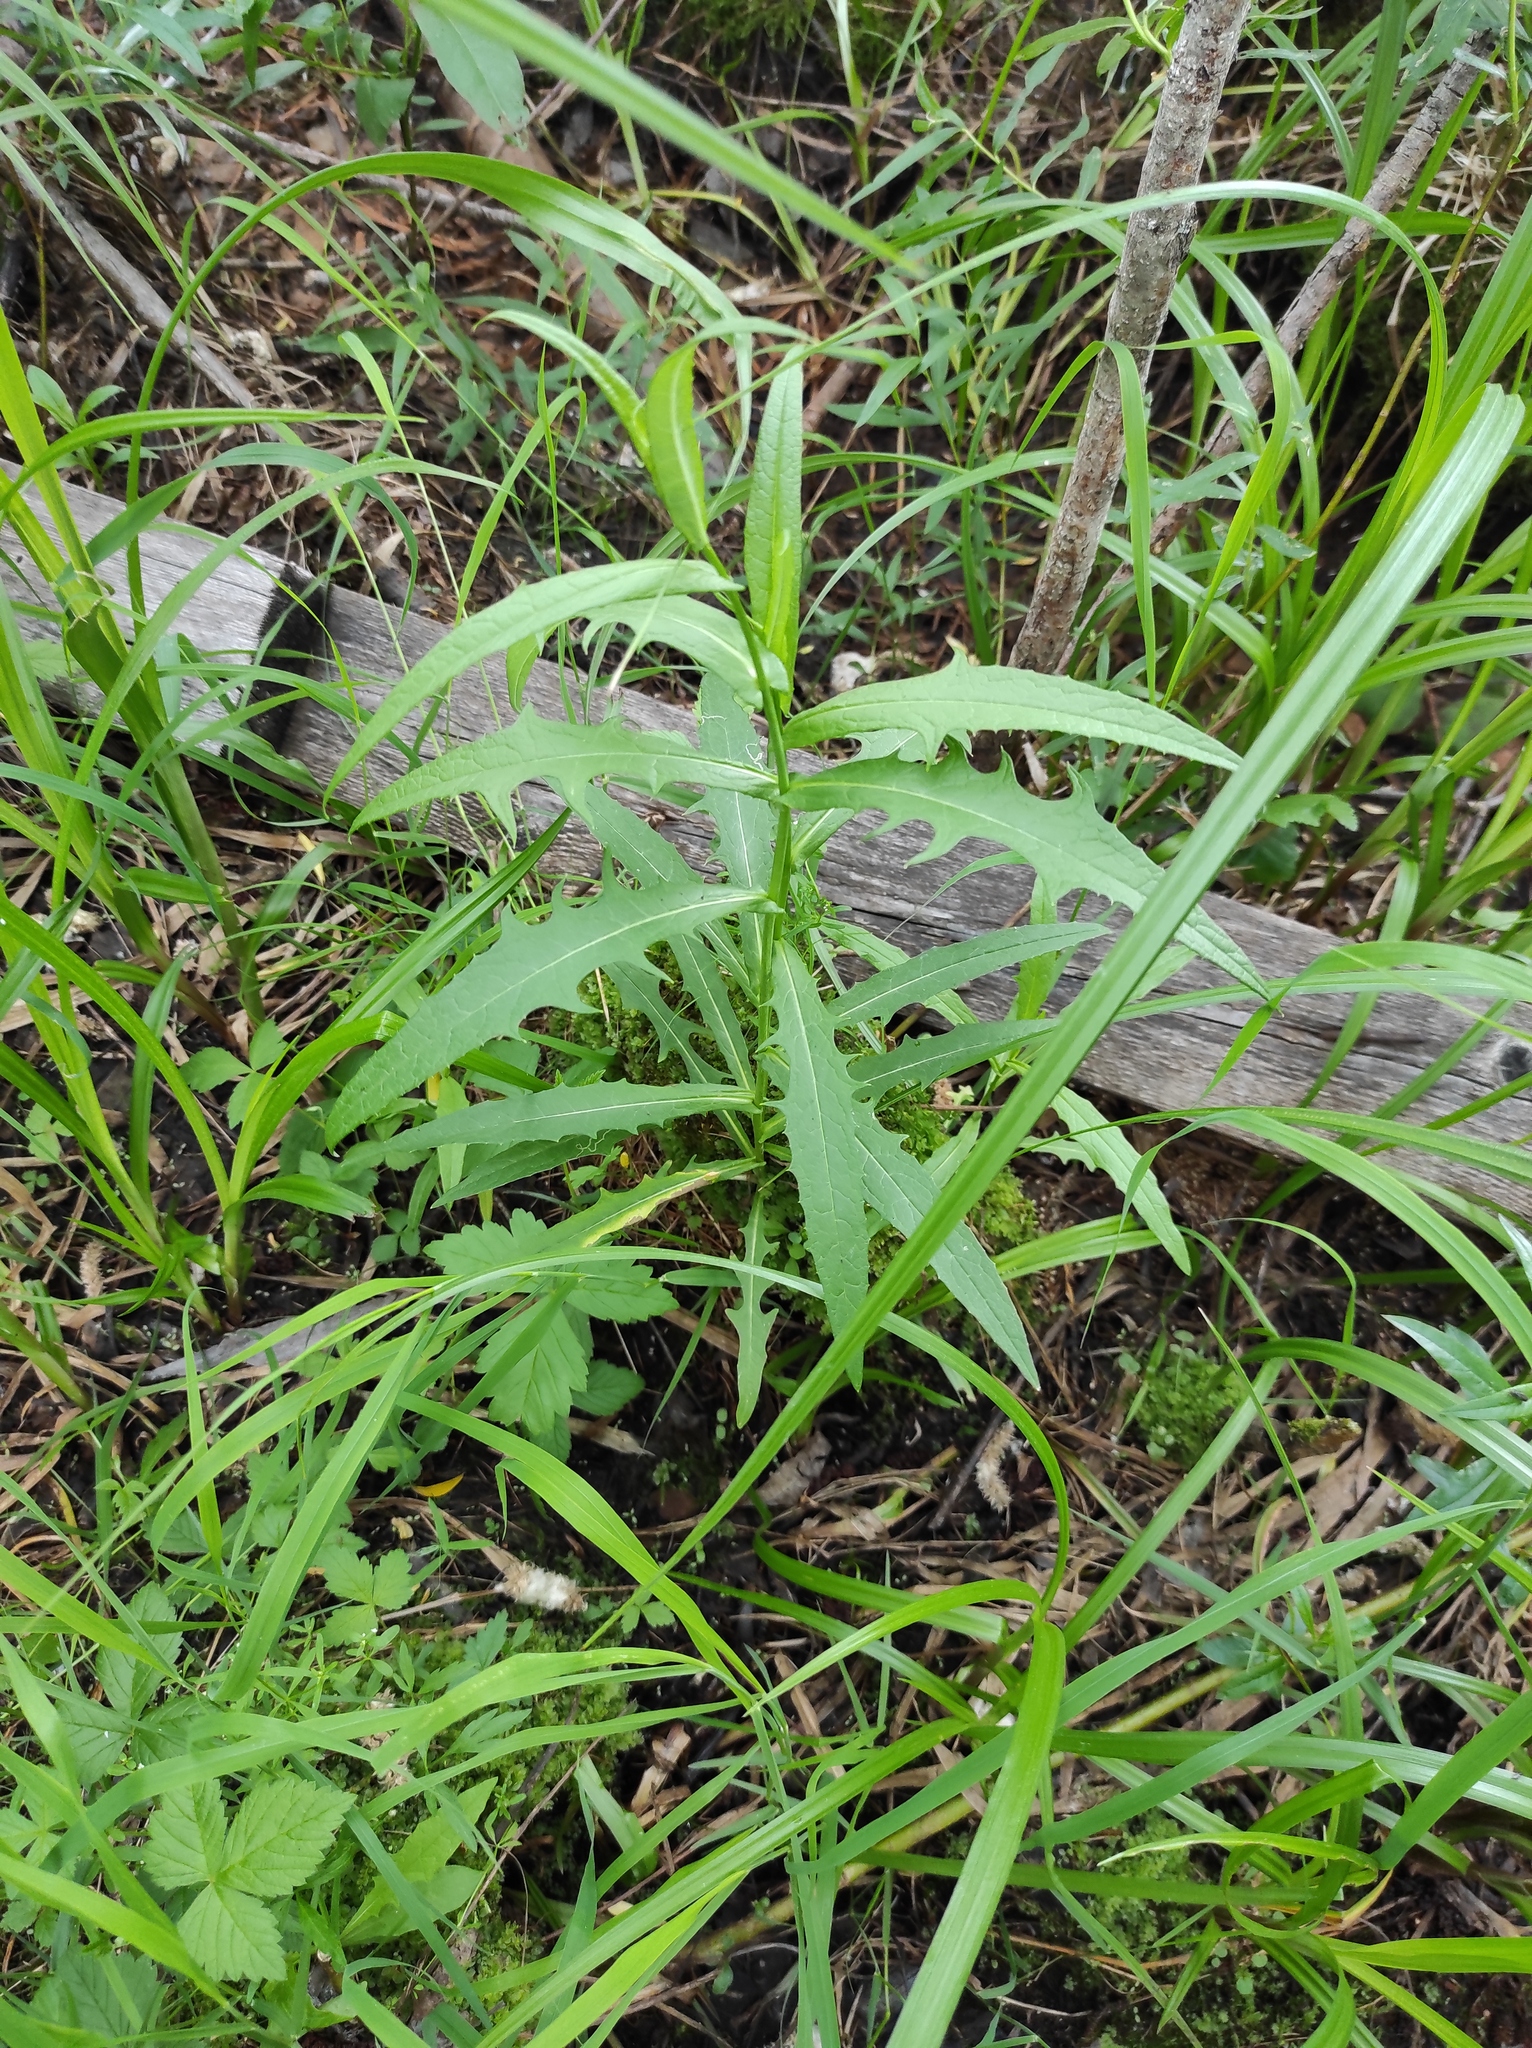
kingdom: Plantae
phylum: Tracheophyta
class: Magnoliopsida
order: Asterales
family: Asteraceae
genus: Lactuca
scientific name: Lactuca sibirica
